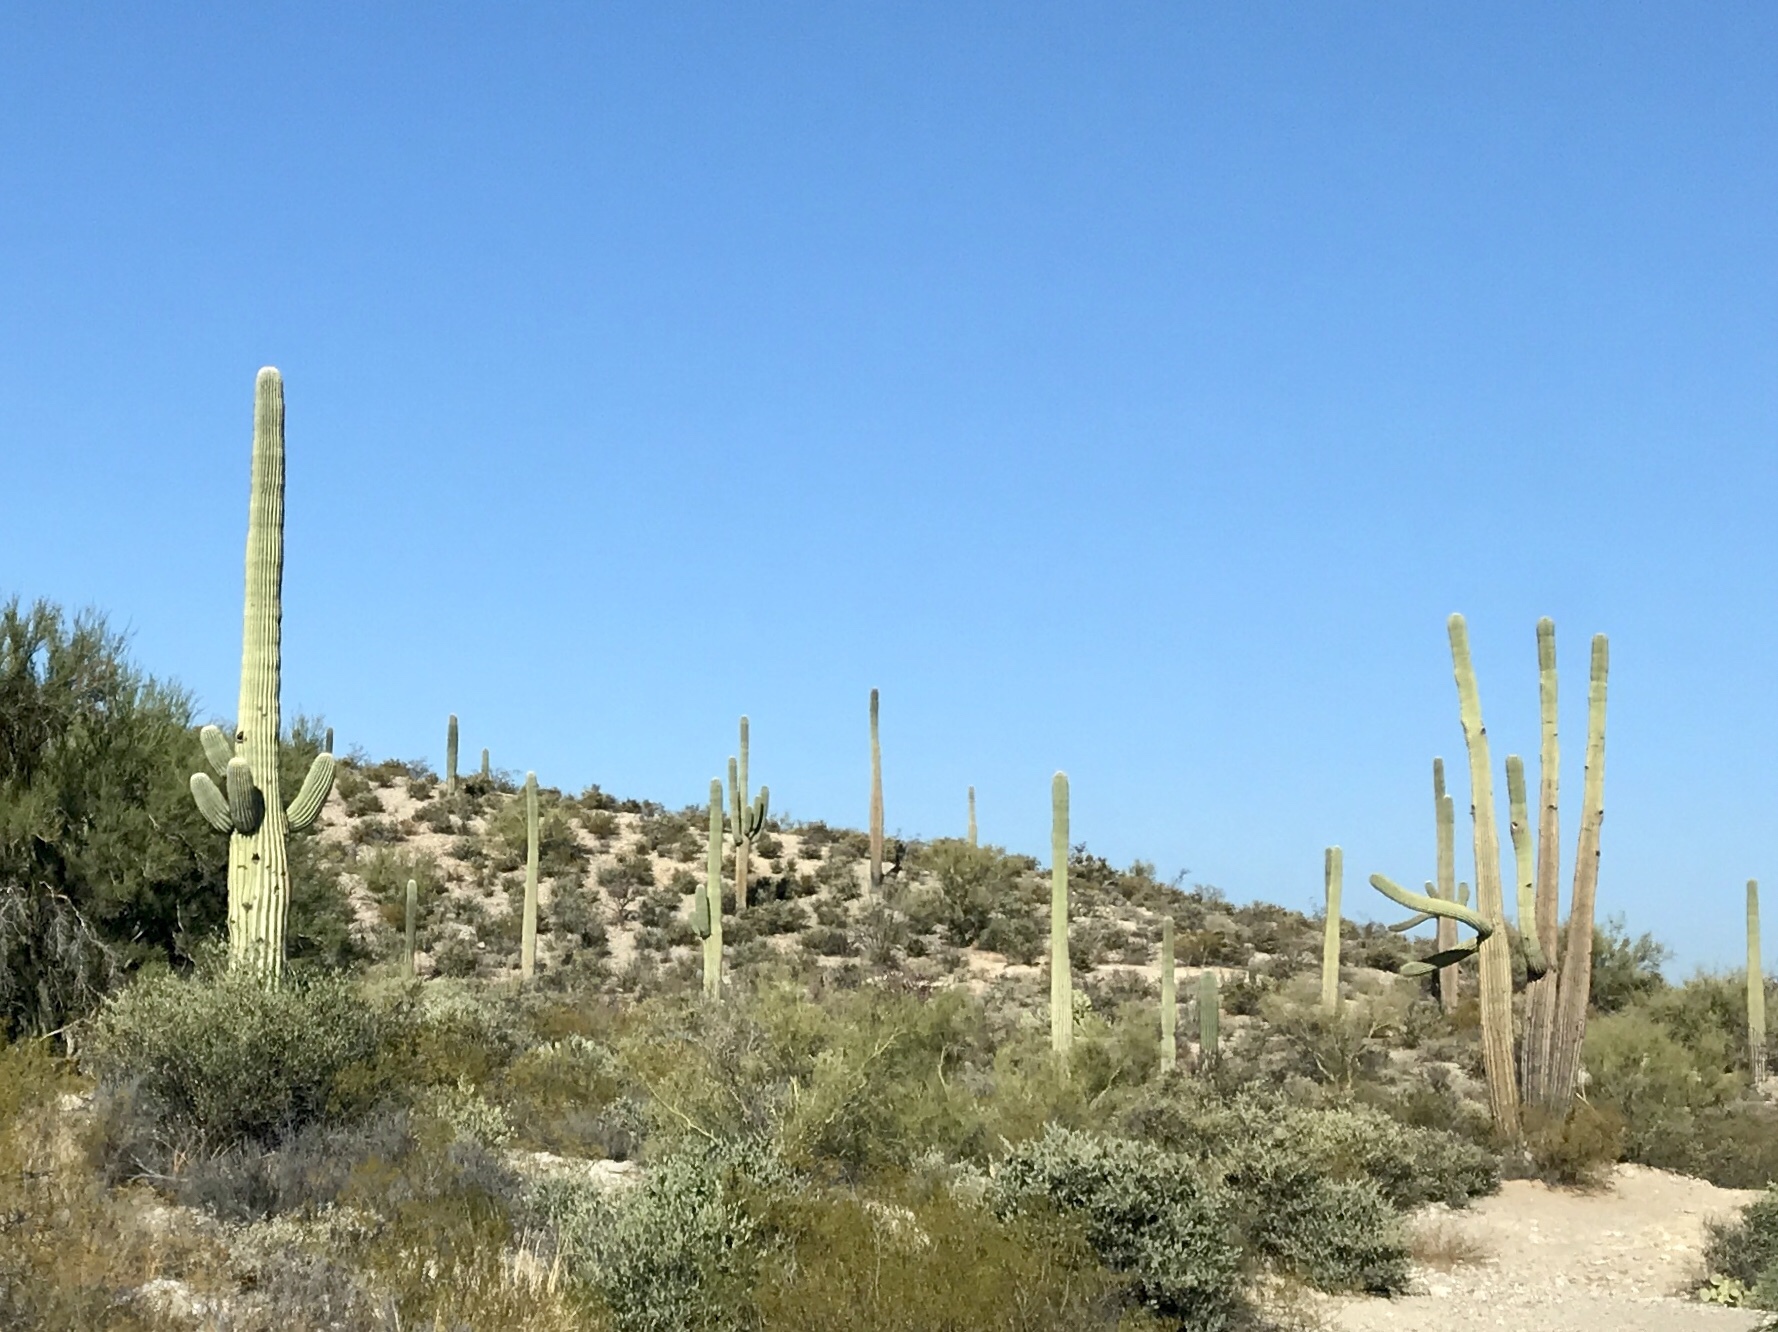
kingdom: Plantae
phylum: Tracheophyta
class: Magnoliopsida
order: Caryophyllales
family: Cactaceae
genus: Carnegiea
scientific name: Carnegiea gigantea
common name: Saguaro
